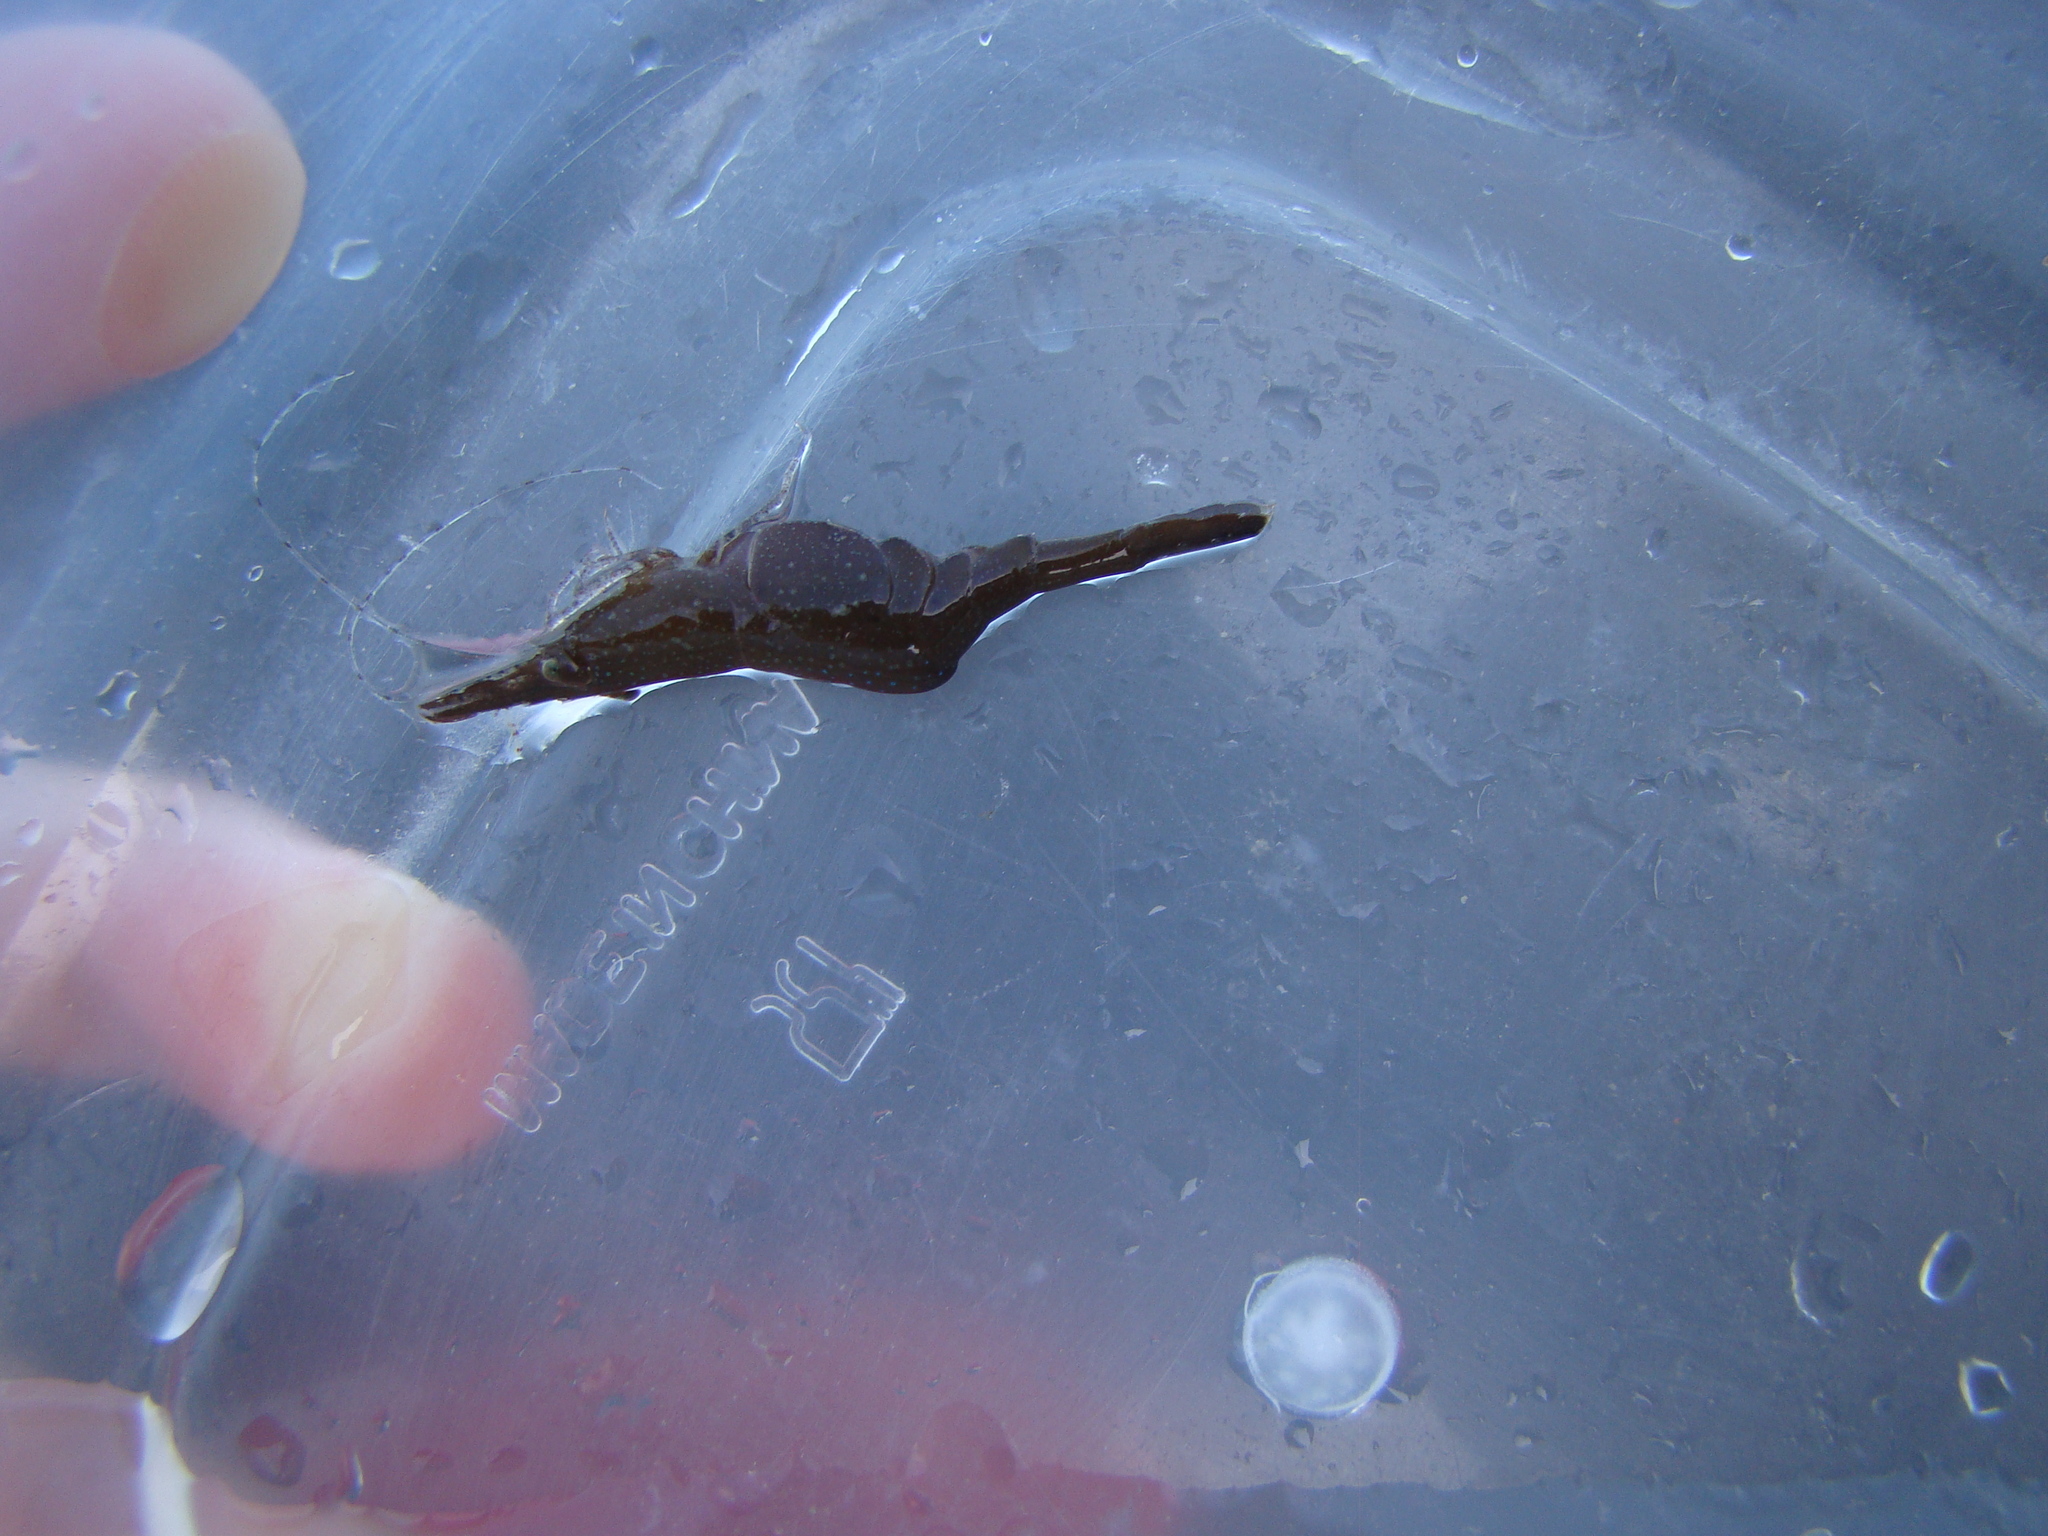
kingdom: Animalia
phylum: Arthropoda
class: Malacostraca
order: Decapoda
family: Hippolytidae
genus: Hippolyte
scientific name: Hippolyte bifidirostris
